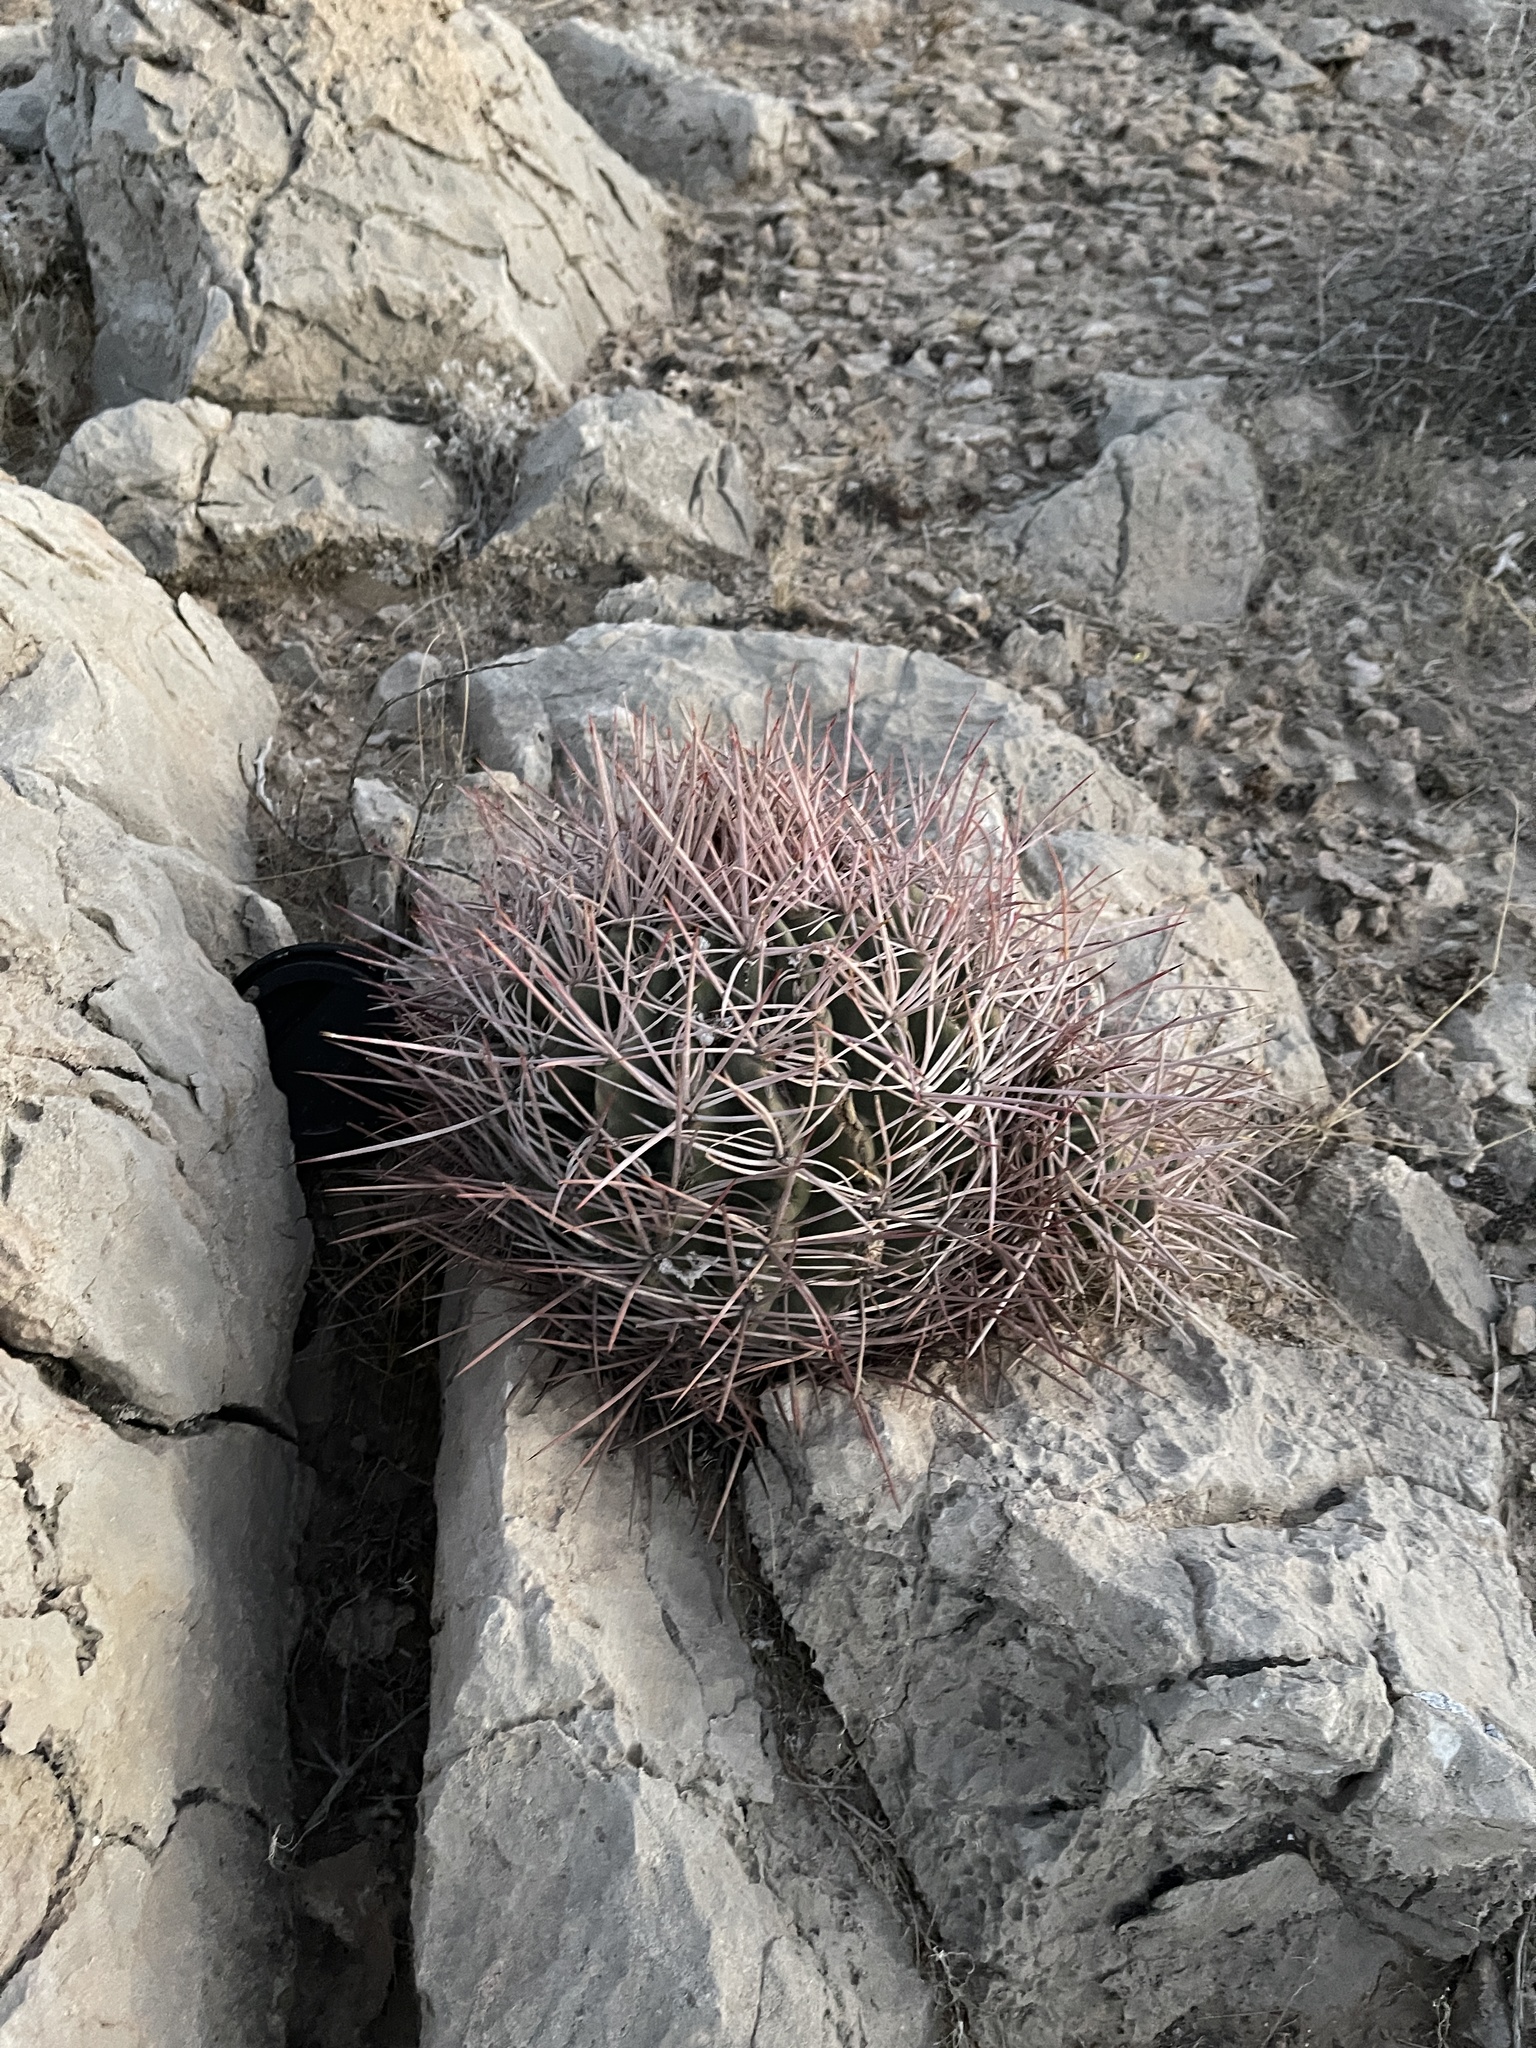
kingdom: Plantae
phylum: Tracheophyta
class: Magnoliopsida
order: Caryophyllales
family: Cactaceae
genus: Echinocactus
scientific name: Echinocactus polycephalus
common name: Cottontop cactus
